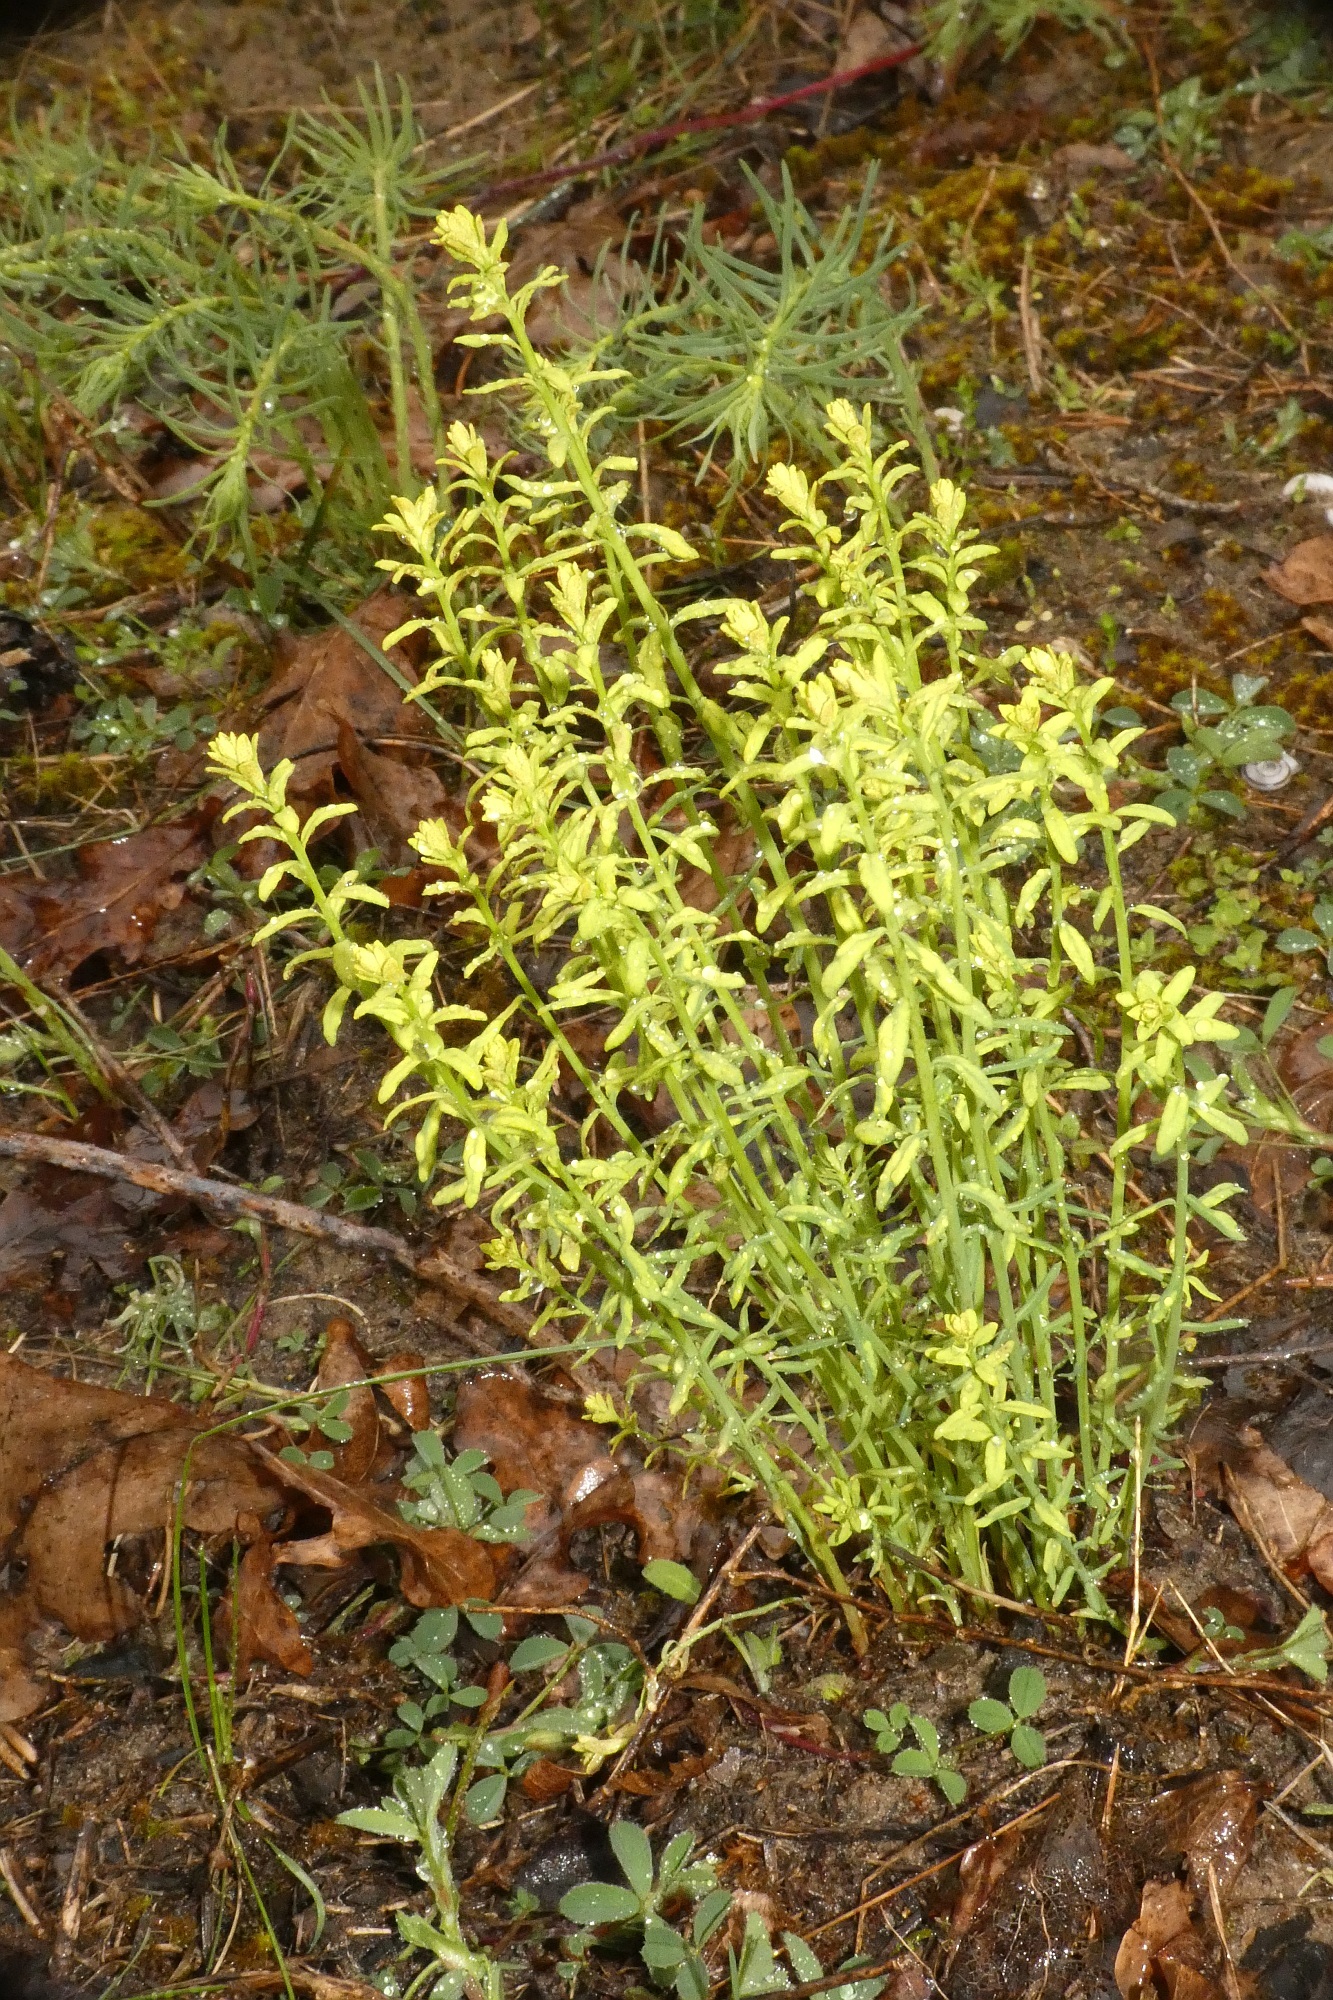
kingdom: Plantae
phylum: Tracheophyta
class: Magnoliopsida
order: Malpighiales
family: Euphorbiaceae
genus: Euphorbia
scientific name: Euphorbia cyparissias
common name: Cypress spurge
